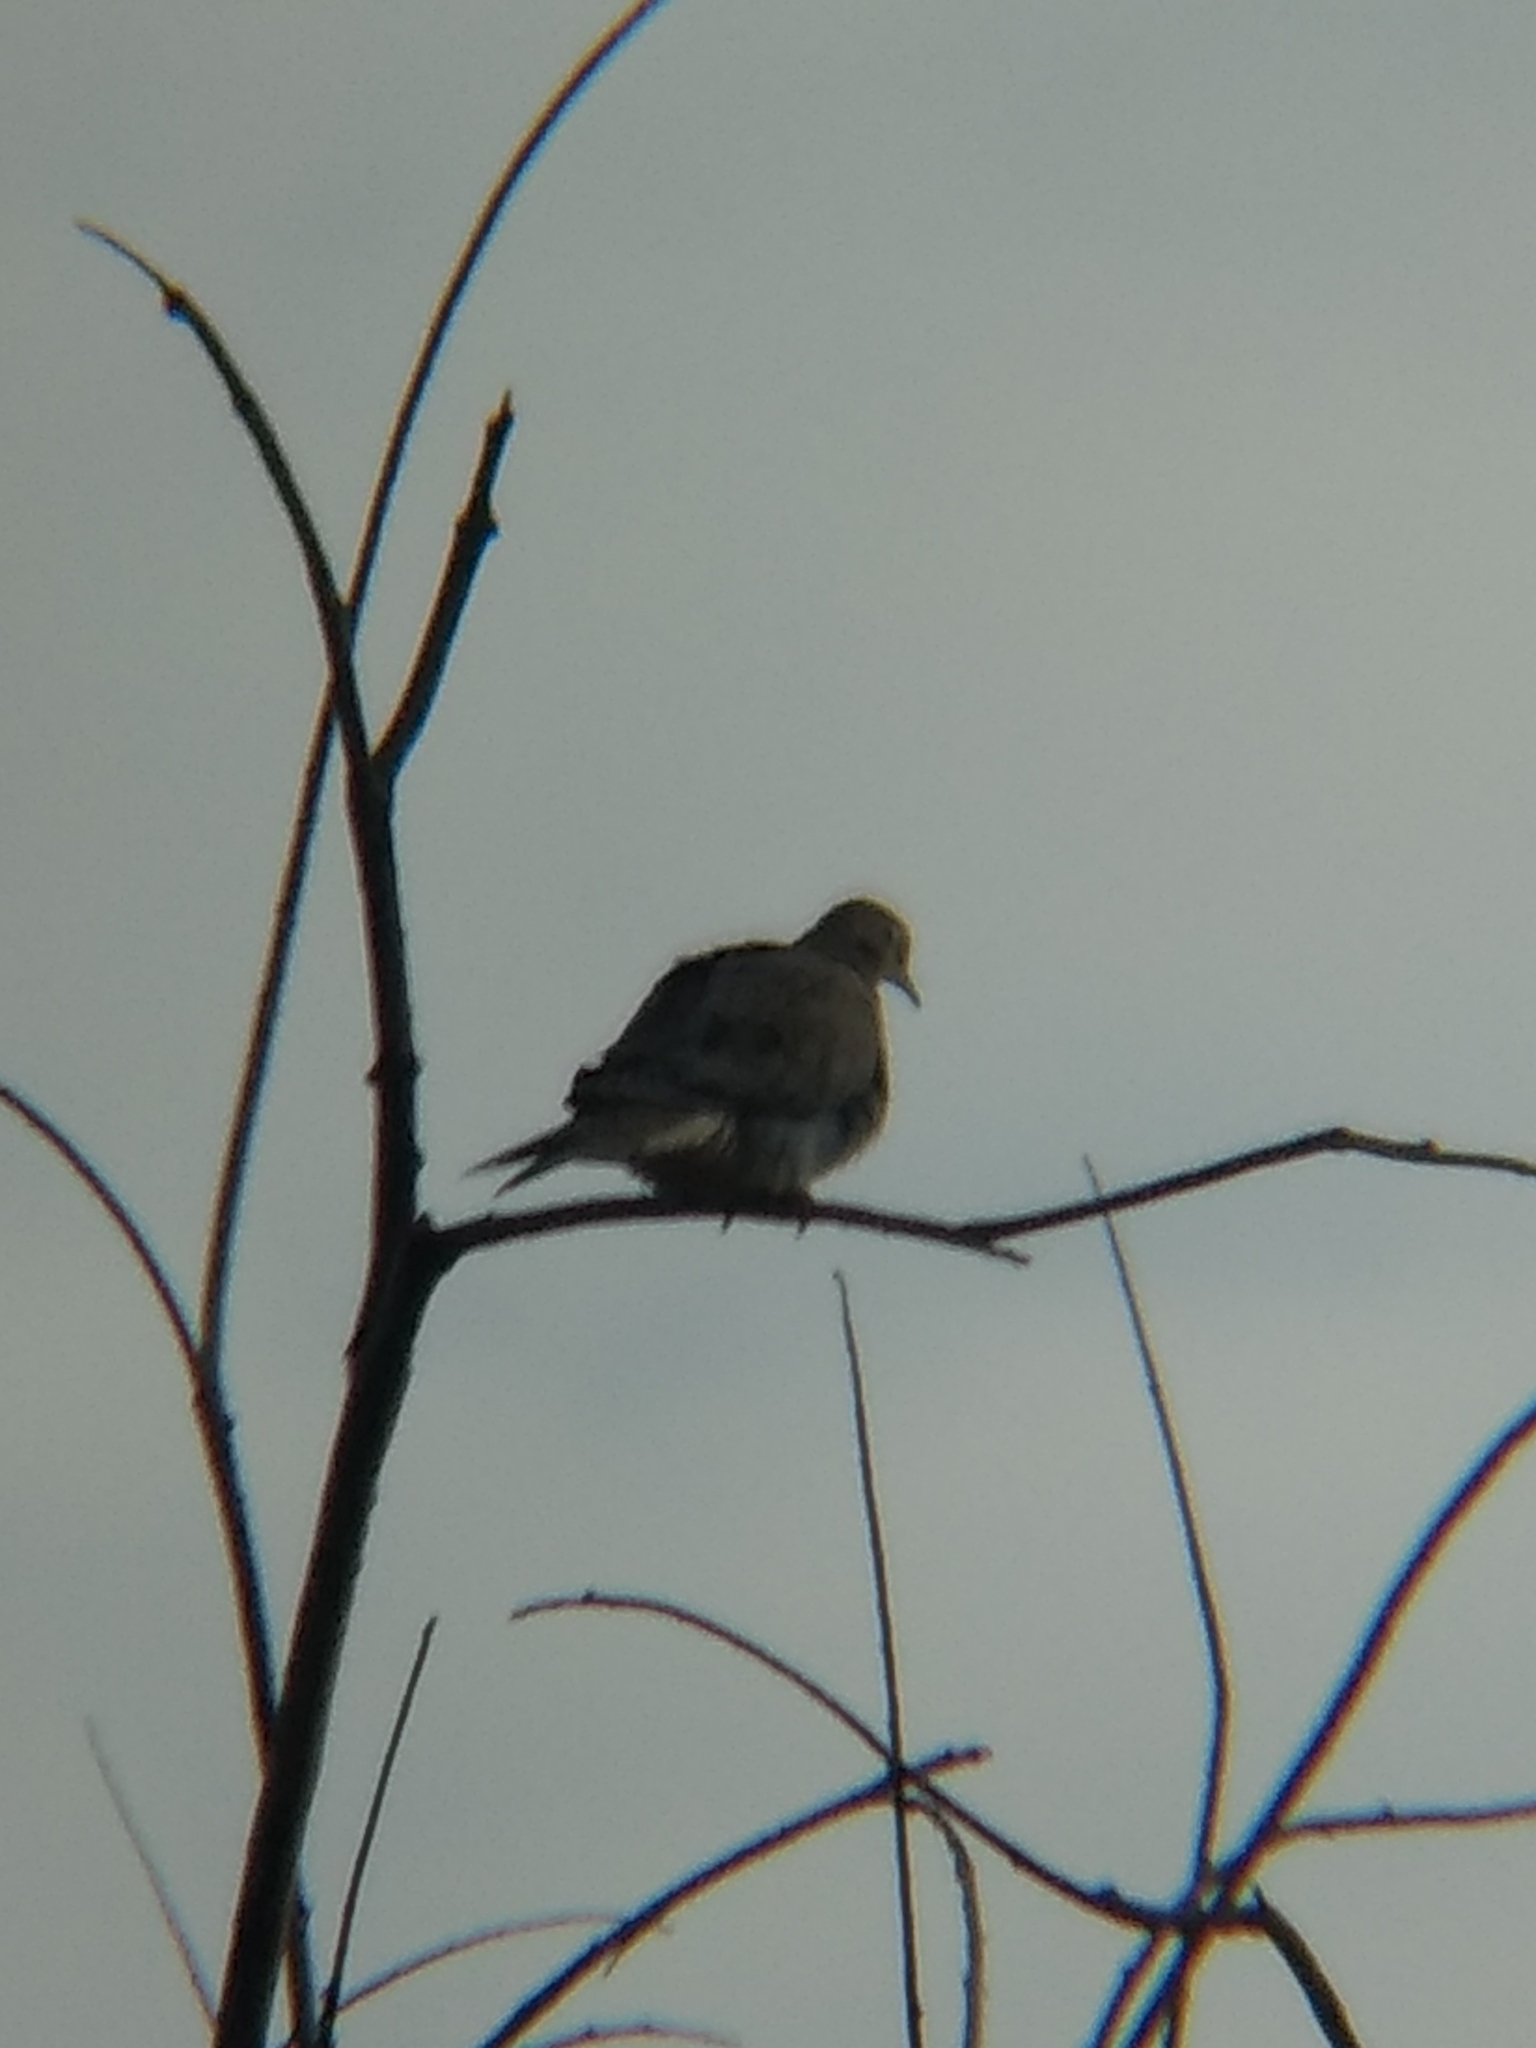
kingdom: Animalia
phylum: Chordata
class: Aves
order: Columbiformes
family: Columbidae
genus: Zenaida
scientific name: Zenaida macroura
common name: Mourning dove
